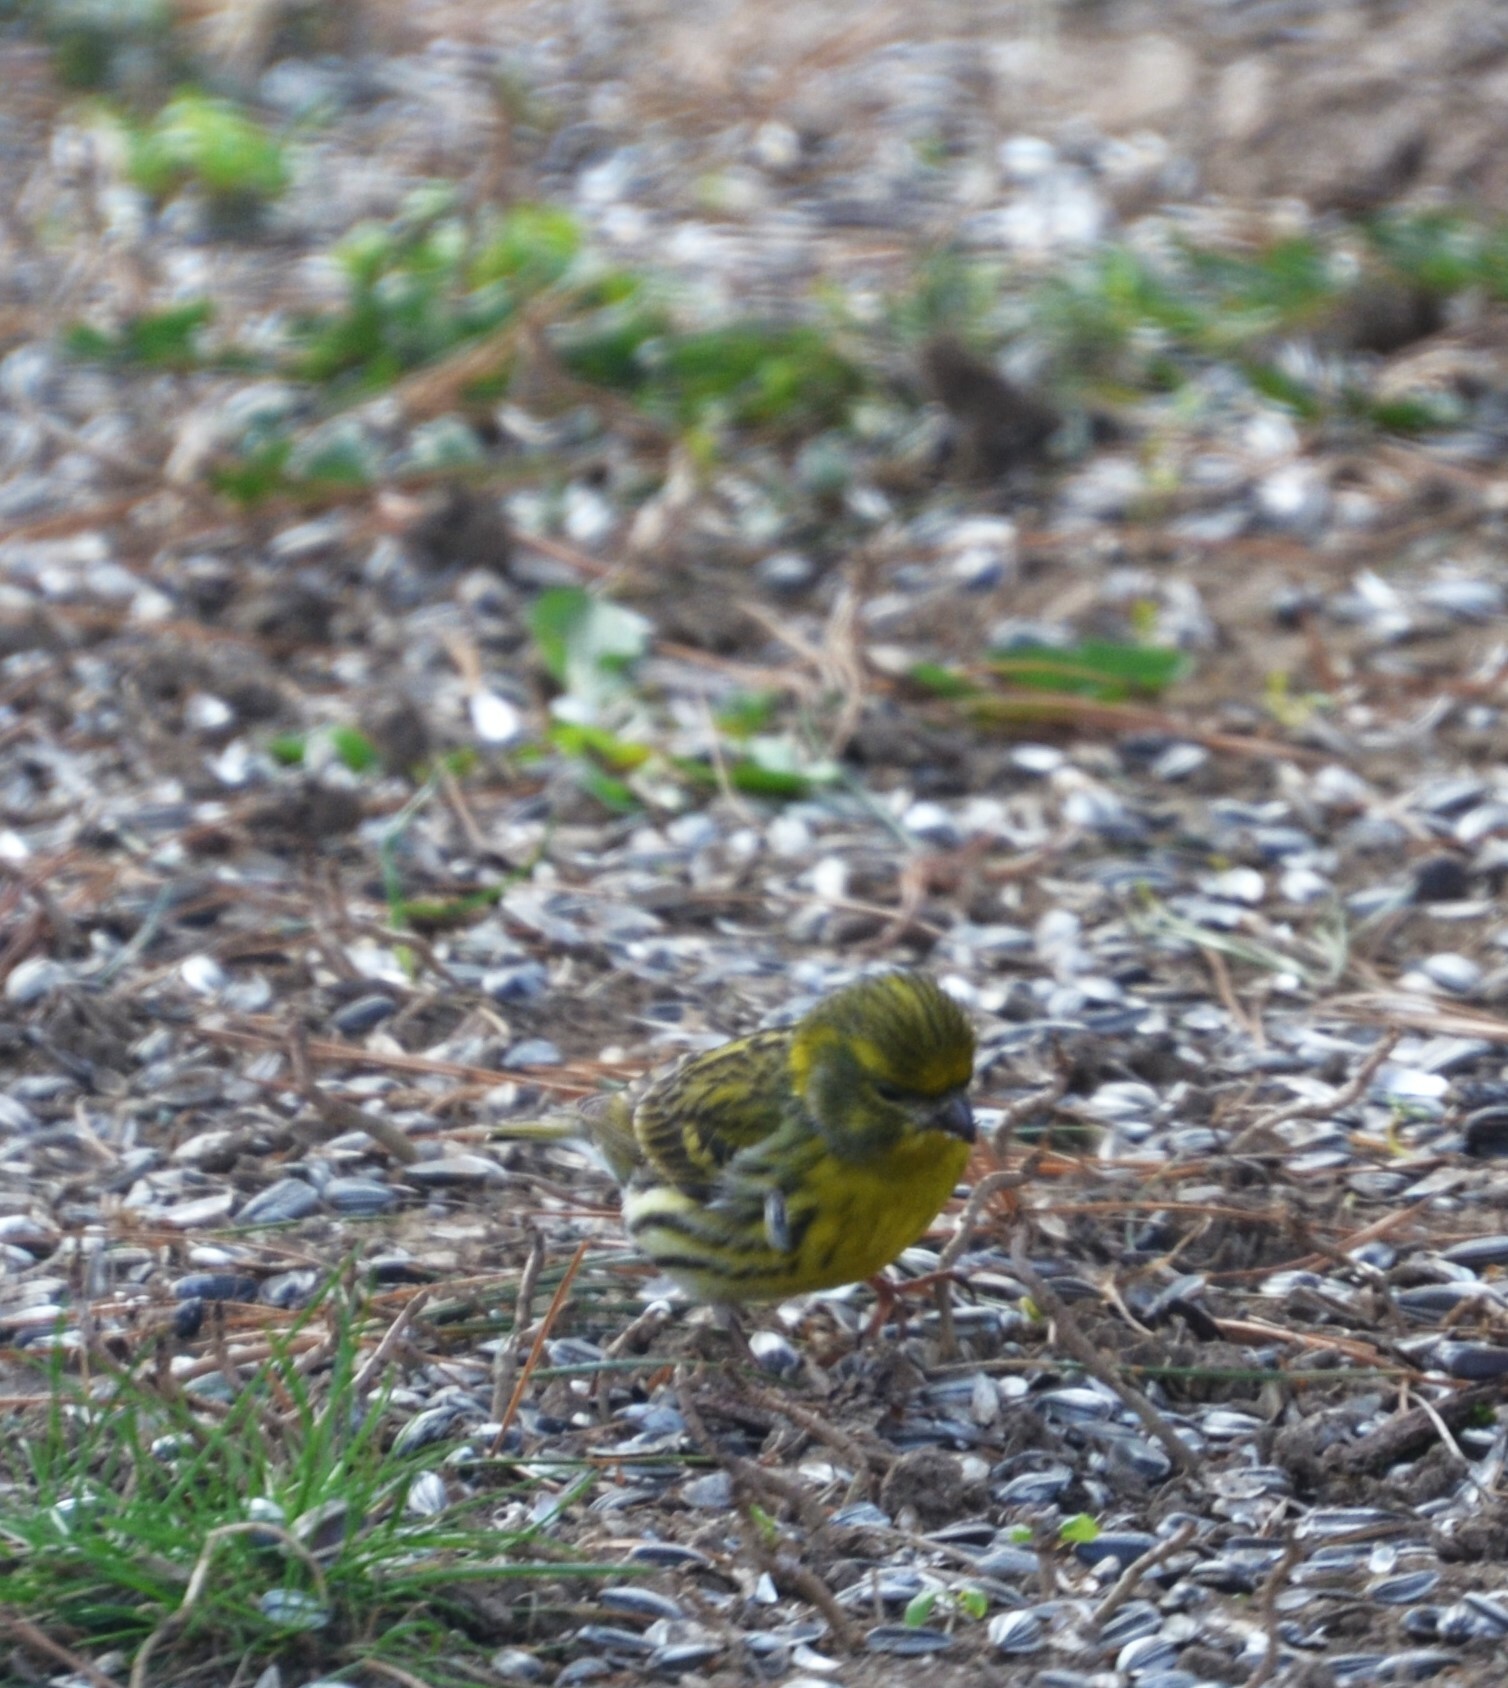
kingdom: Animalia
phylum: Chordata
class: Aves
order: Passeriformes
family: Fringillidae
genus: Serinus
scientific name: Serinus serinus
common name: European serin
